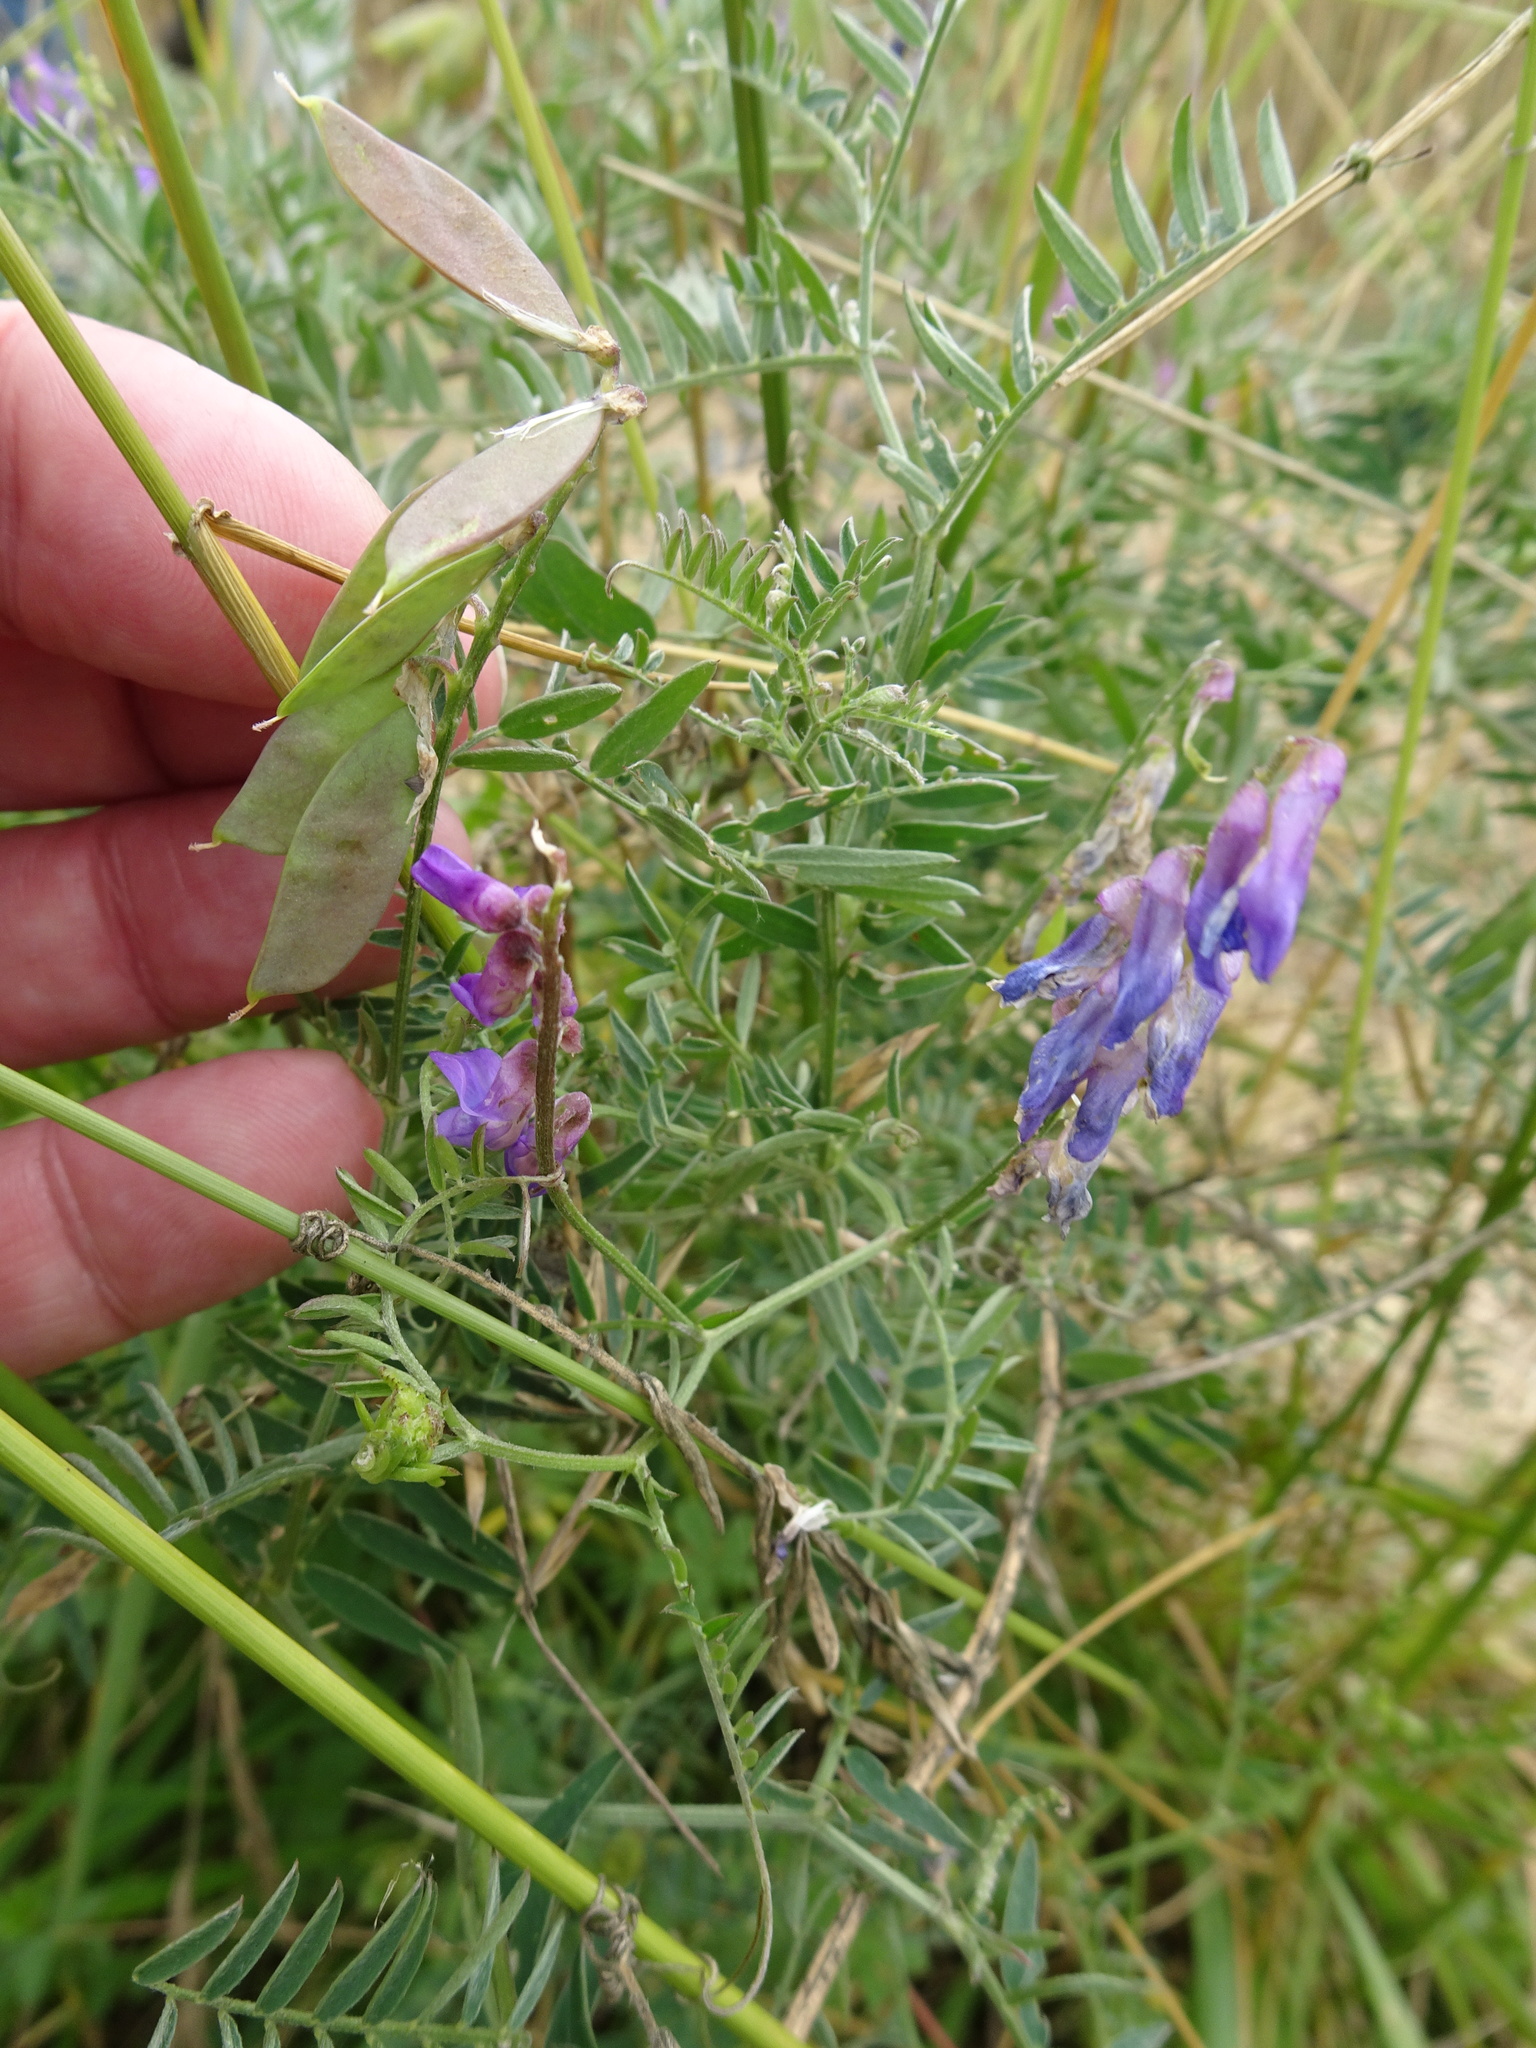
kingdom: Plantae
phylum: Tracheophyta
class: Magnoliopsida
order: Fabales
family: Fabaceae
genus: Vicia
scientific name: Vicia cracca
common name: Bird vetch
